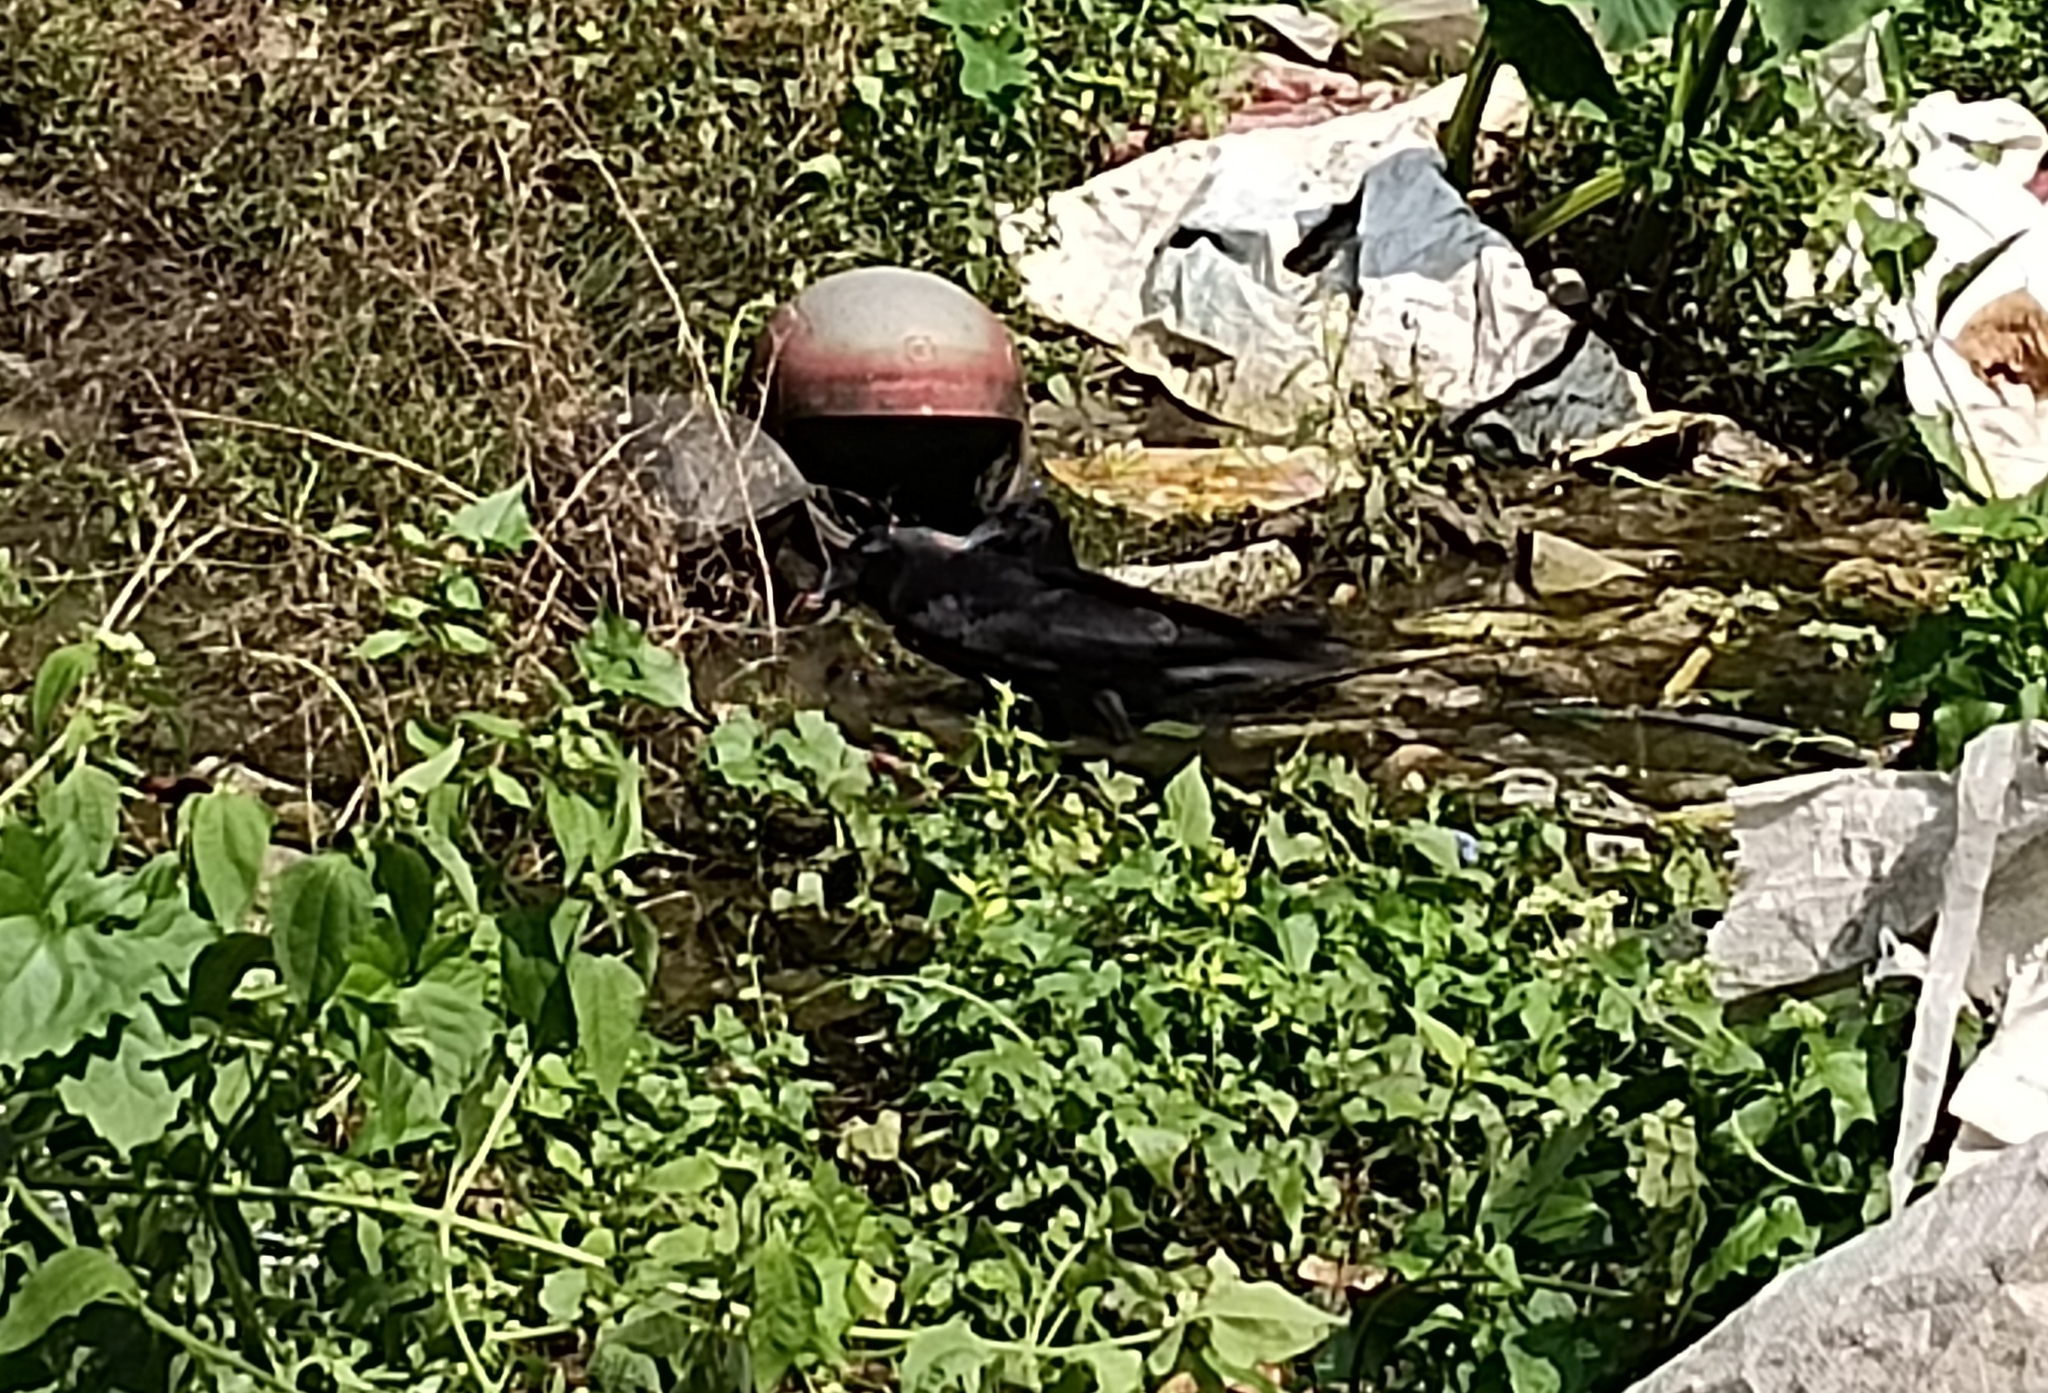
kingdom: Animalia
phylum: Chordata
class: Aves
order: Passeriformes
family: Corvidae
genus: Corvus
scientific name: Corvus macrorhynchos
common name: Large-billed crow
